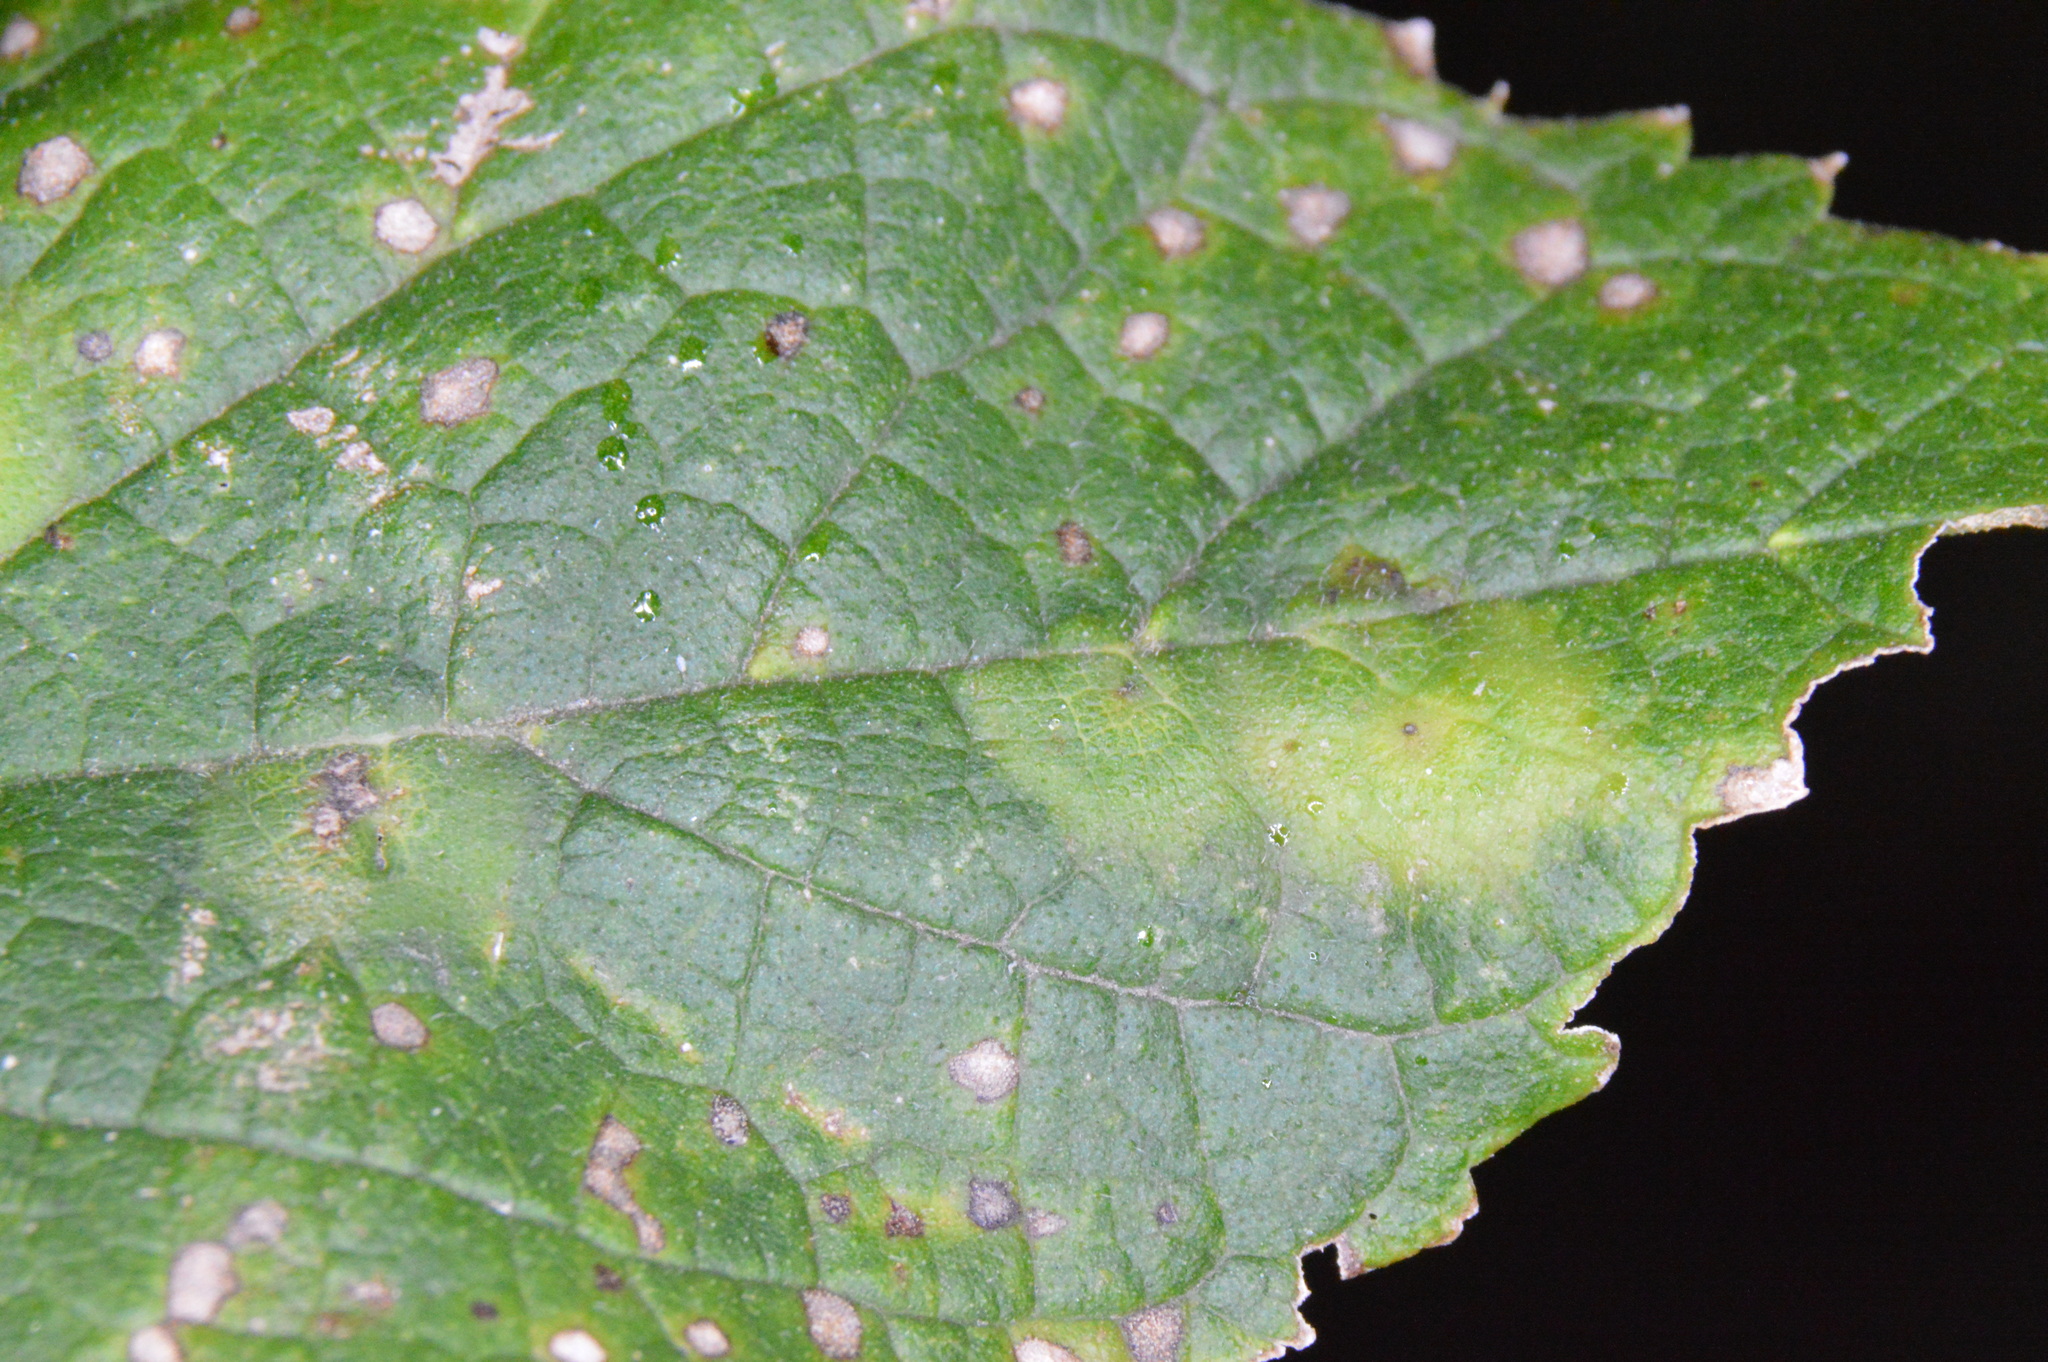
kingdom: Animalia
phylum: Arthropoda
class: Insecta
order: Hemiptera
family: Aphalaridae
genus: Pachypsylla
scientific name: Pachypsylla celtidisvesicula
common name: Hackberry blister gall psyllid
